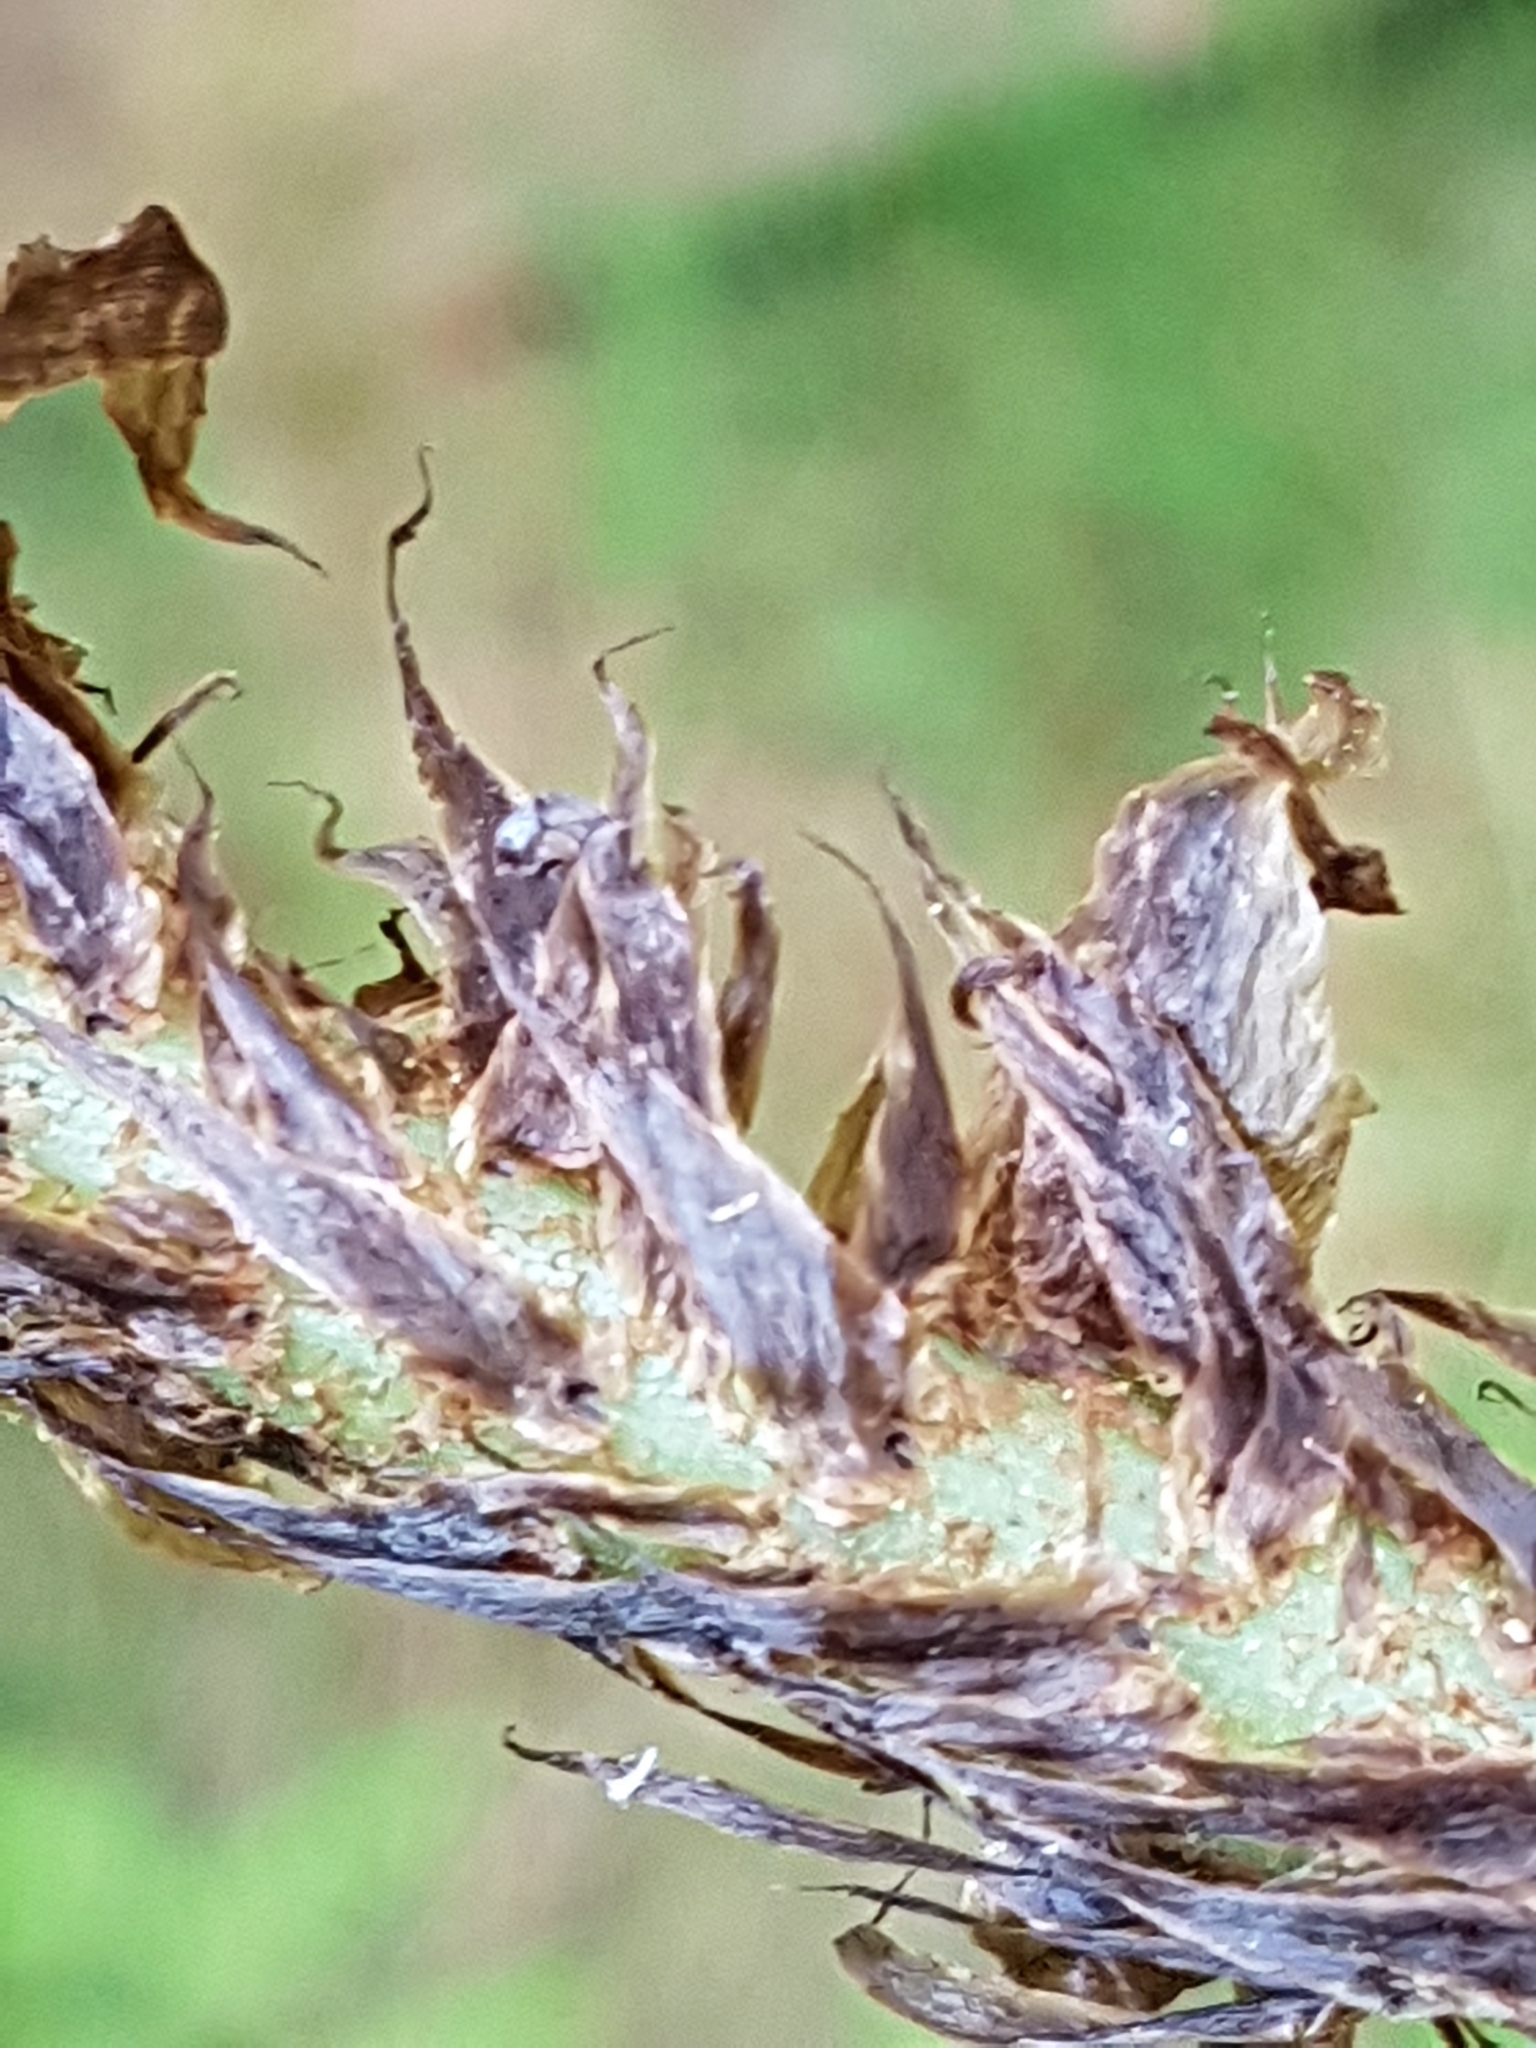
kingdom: Plantae
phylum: Tracheophyta
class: Polypodiopsida
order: Polypodiales
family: Dryopteridaceae
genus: Dryopteris
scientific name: Dryopteris dilatata
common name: Broad buckler-fern
